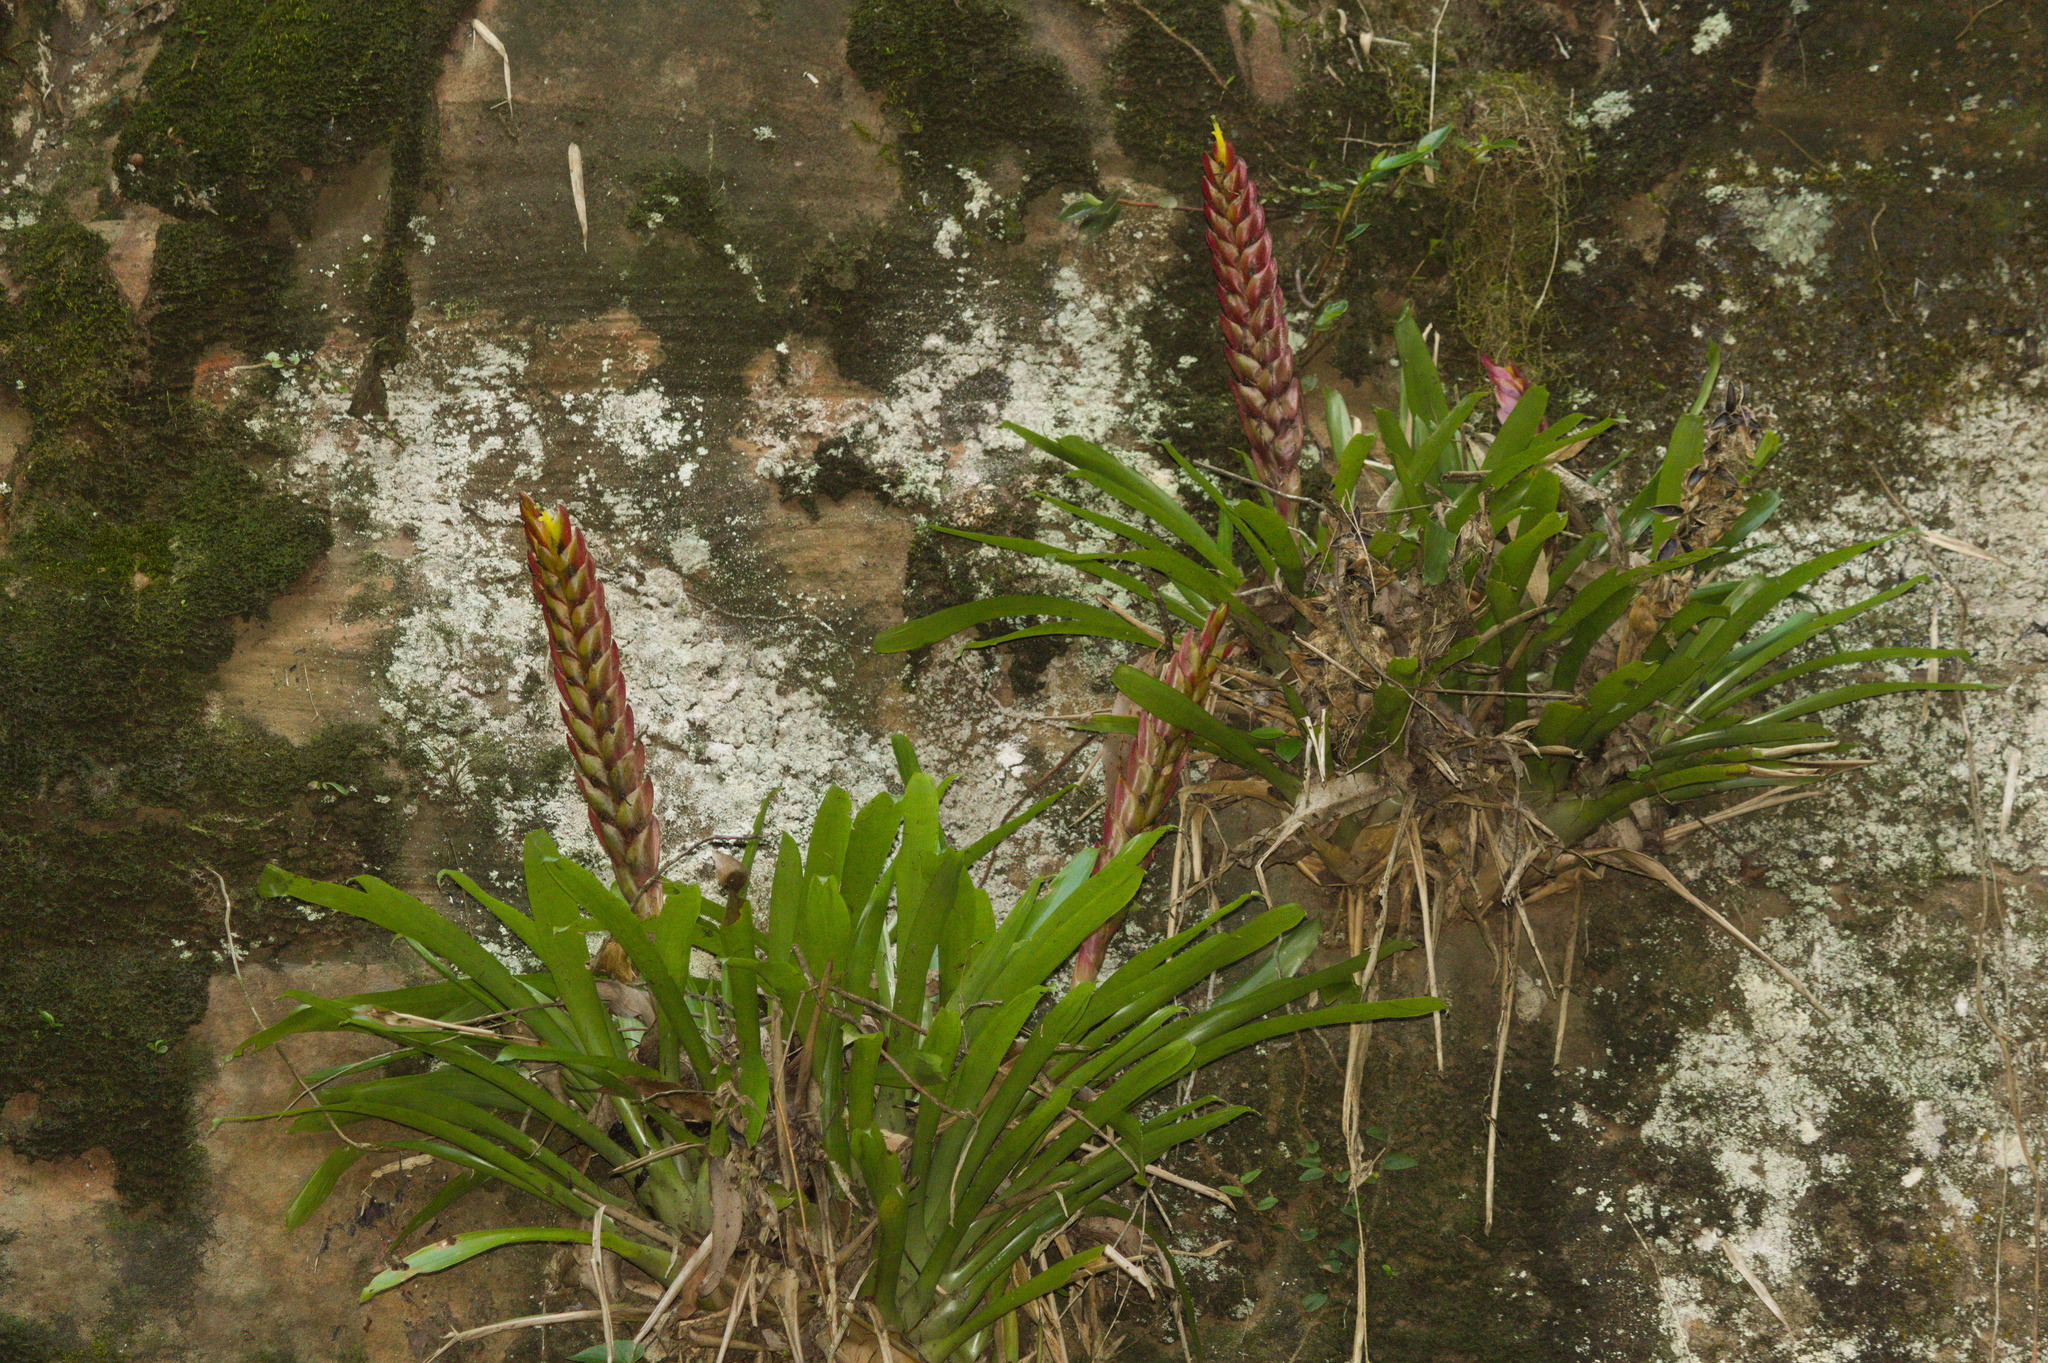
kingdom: Plantae
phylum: Tracheophyta
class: Liliopsida
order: Poales
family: Bromeliaceae
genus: Vriesea
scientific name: Vriesea incurvata
